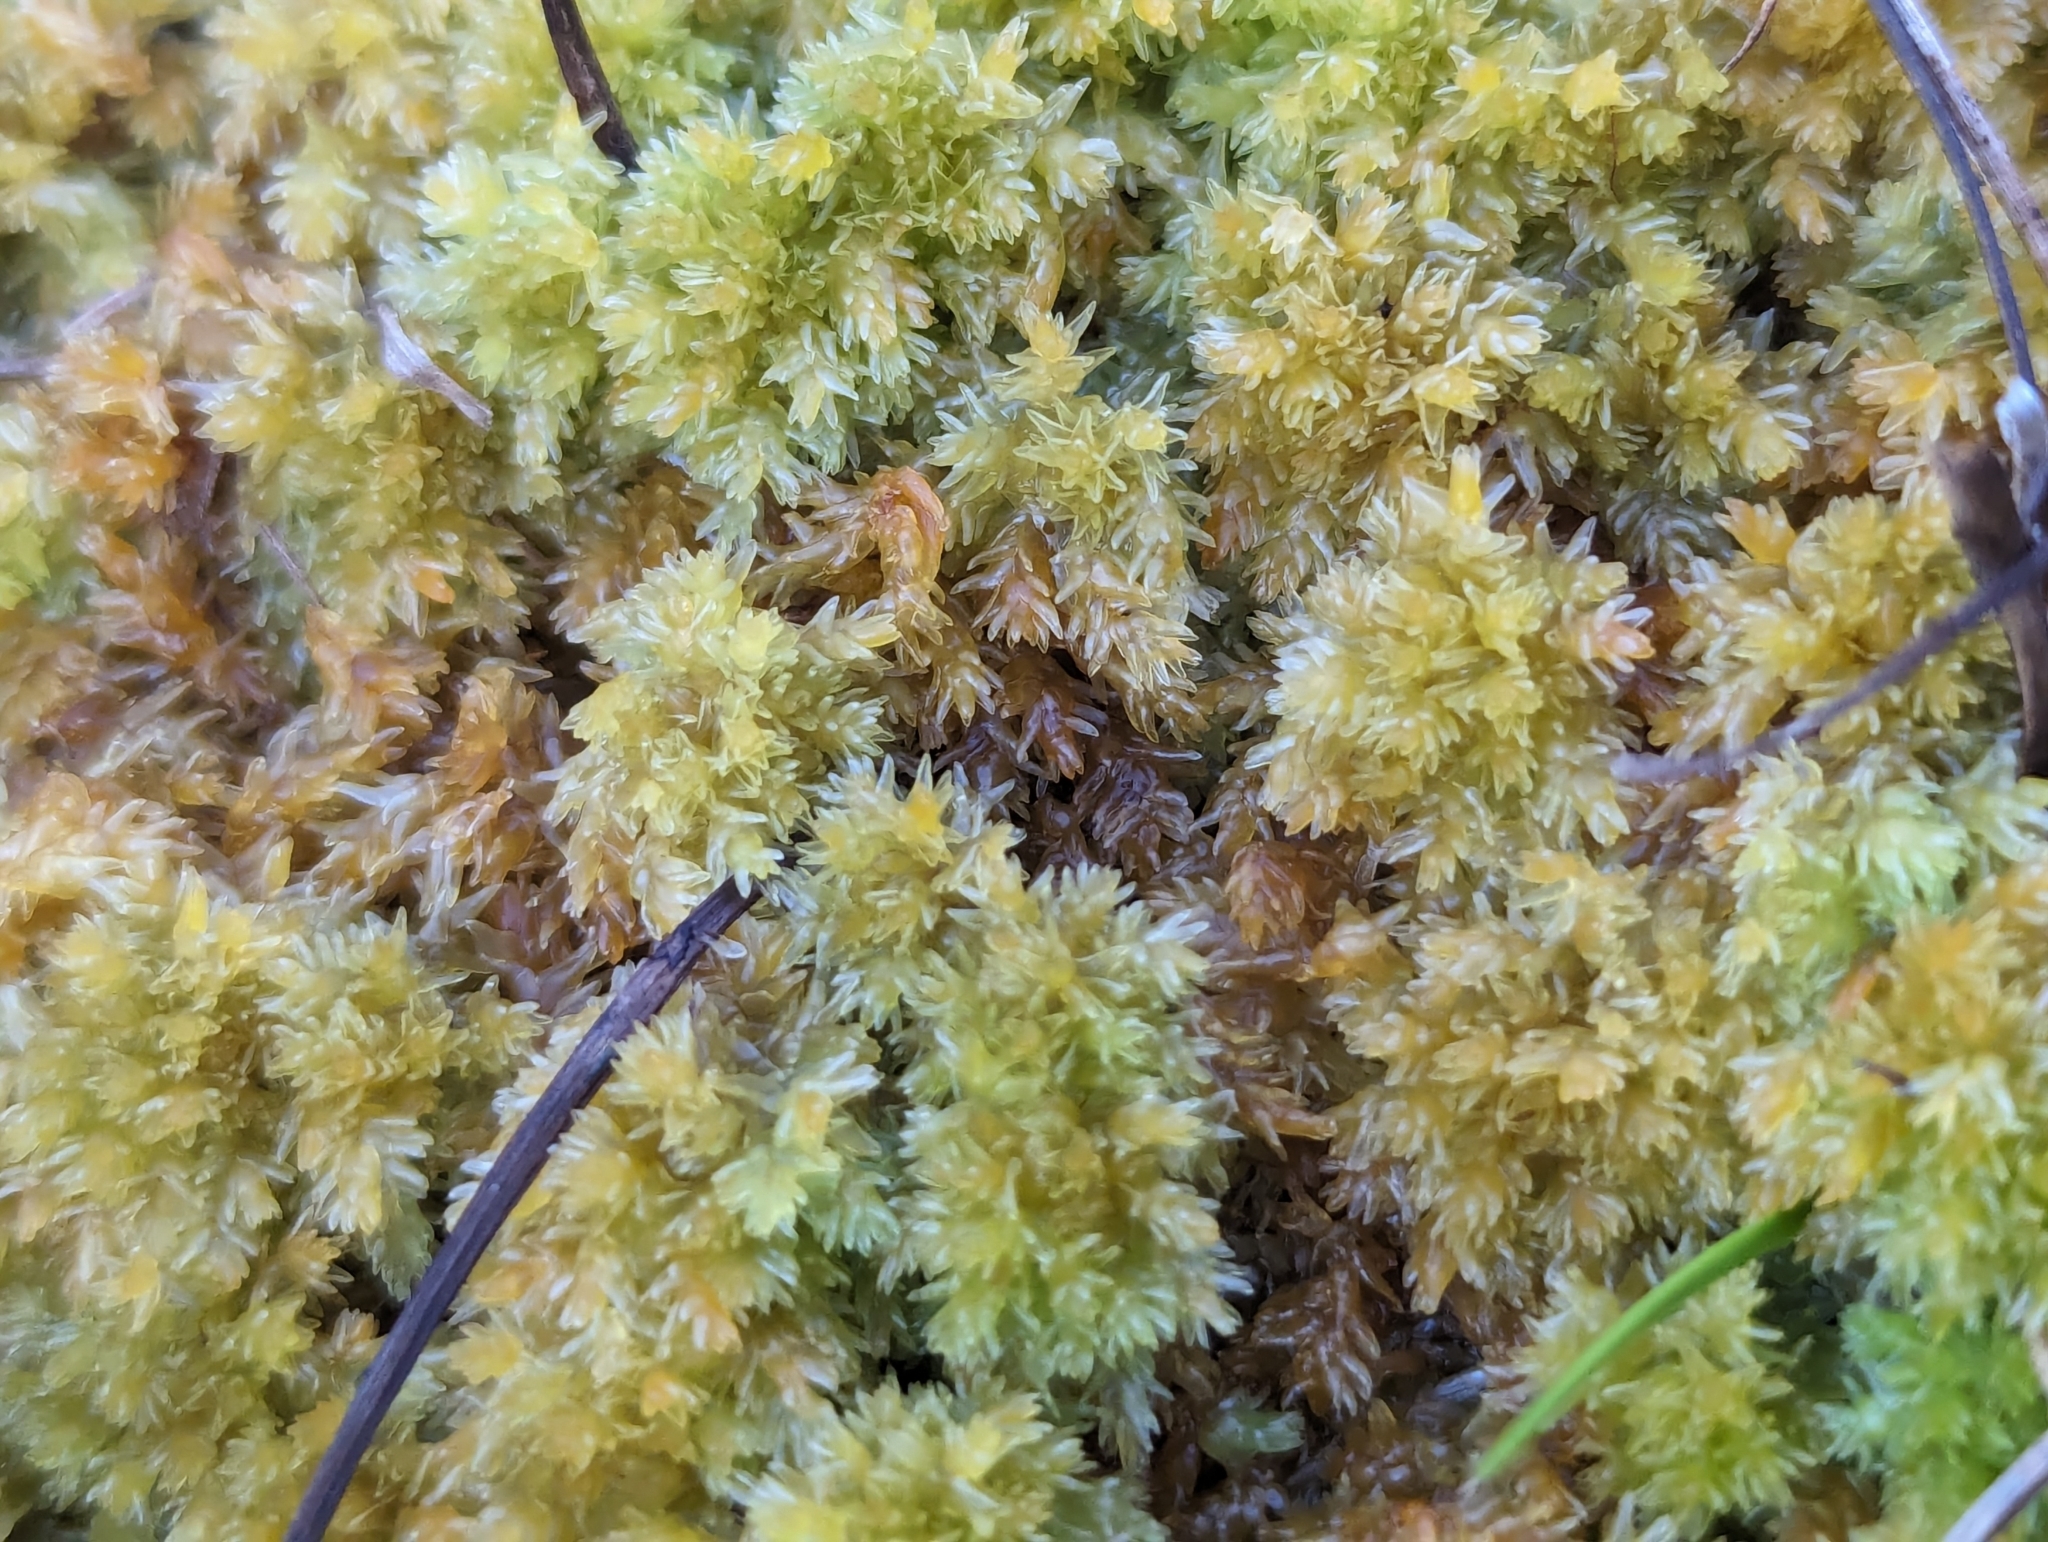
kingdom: Plantae
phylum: Bryophyta
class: Sphagnopsida
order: Sphagnales
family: Sphagnaceae
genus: Sphagnum
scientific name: Sphagnum compactum
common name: Compact peat moss
